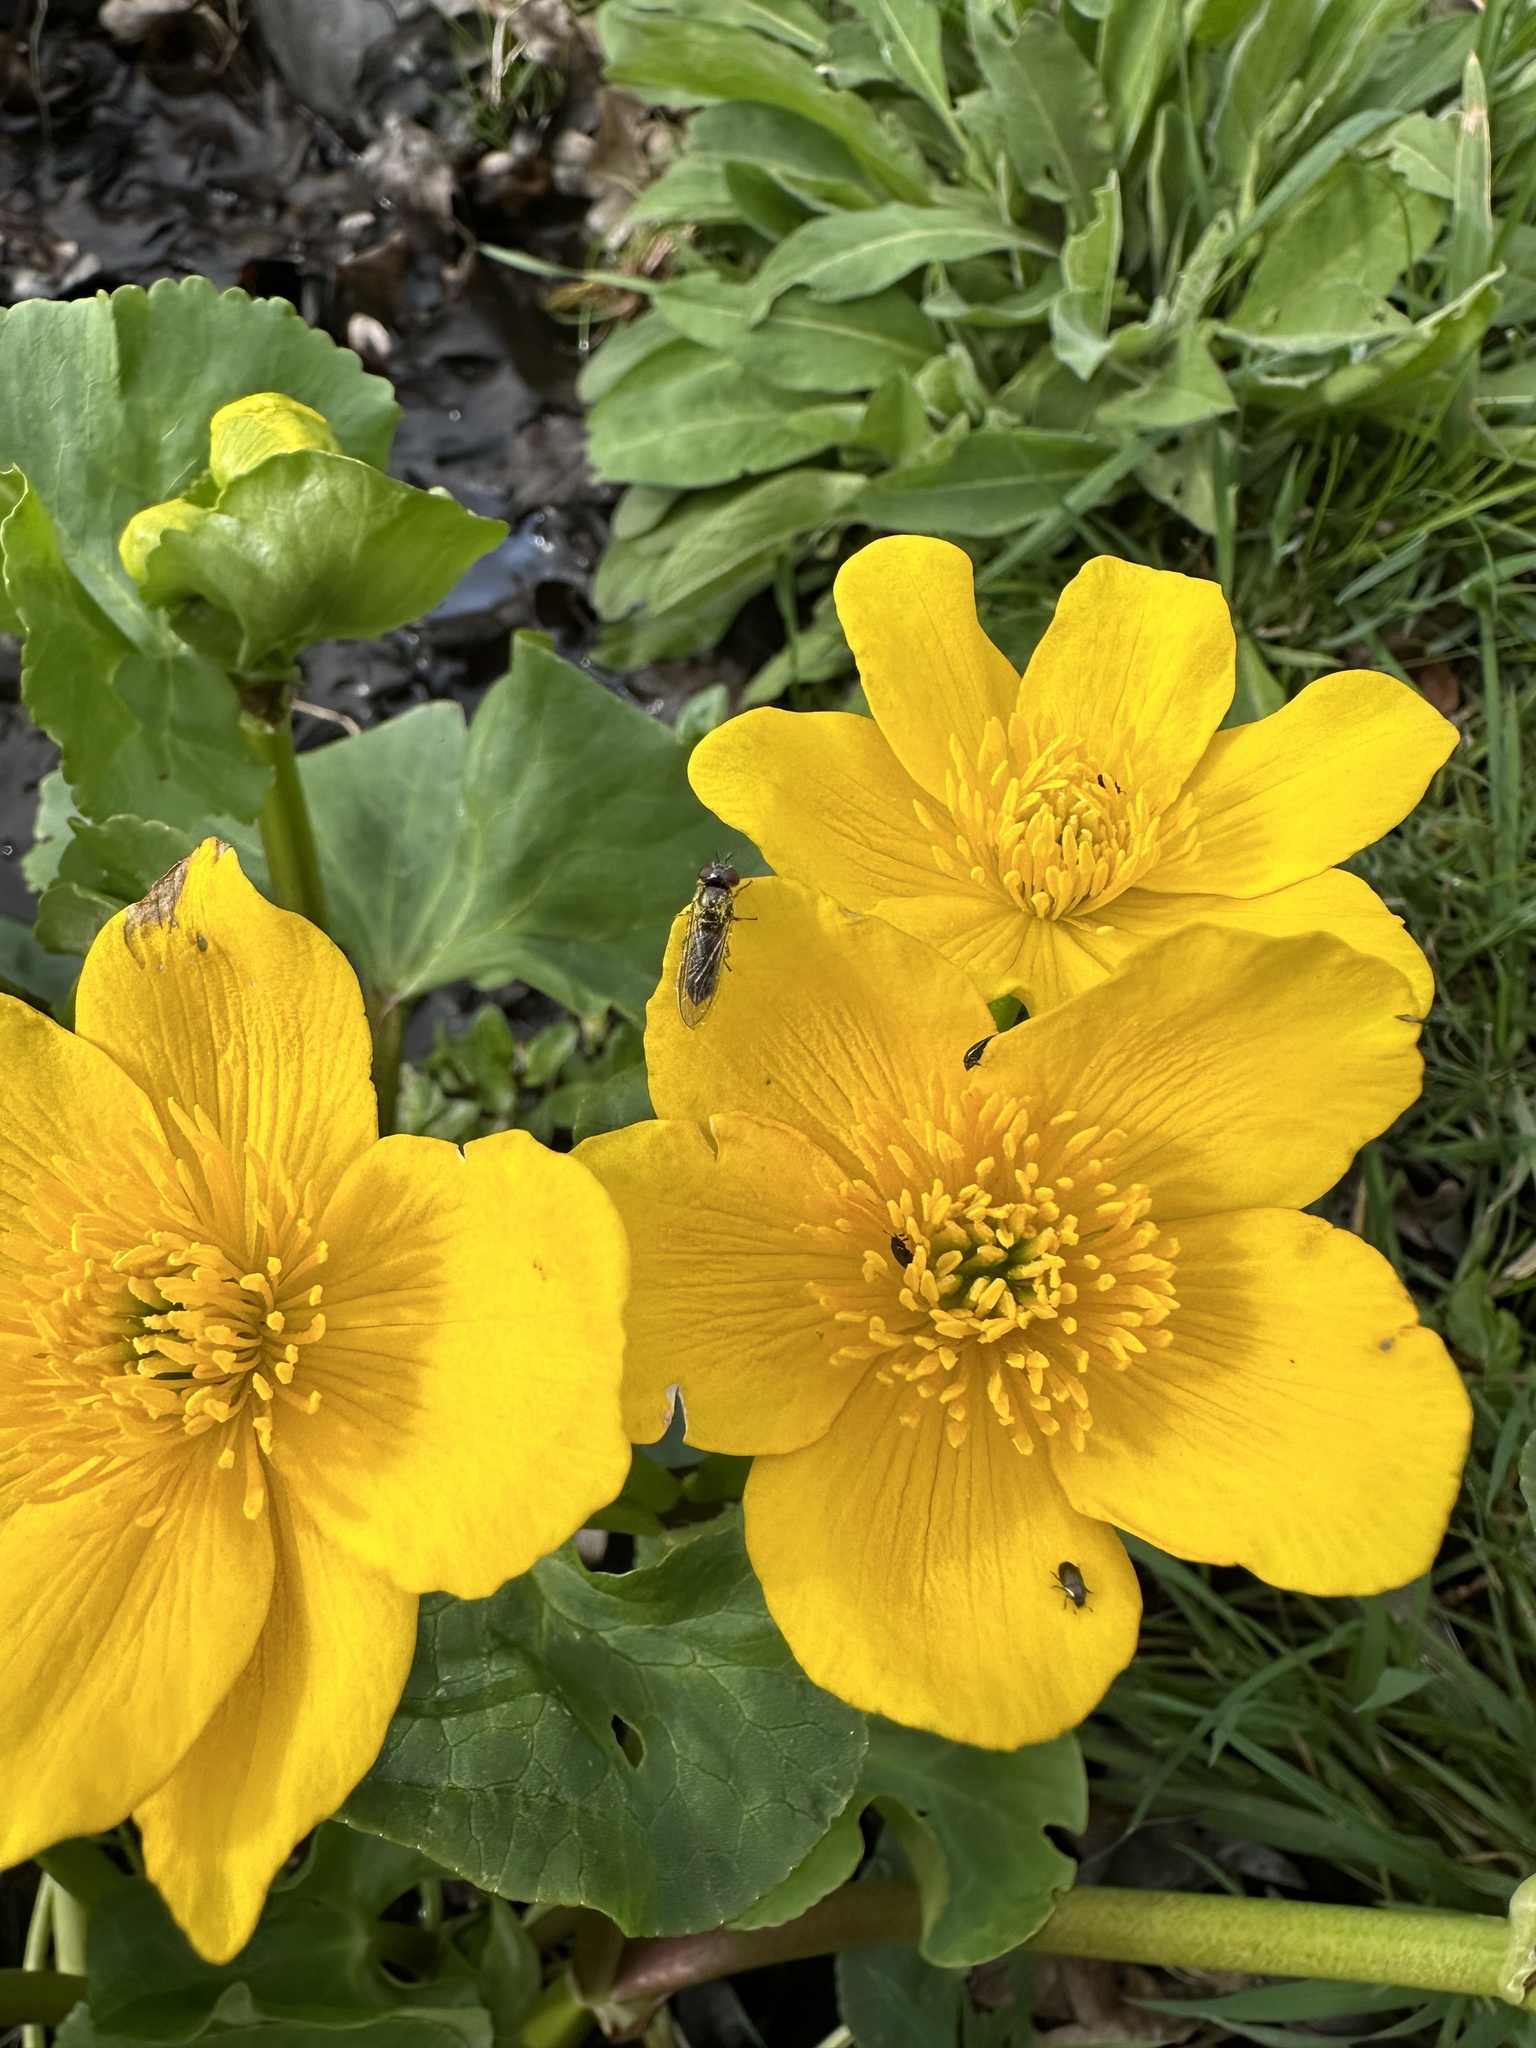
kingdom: Plantae
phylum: Tracheophyta
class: Magnoliopsida
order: Ranunculales
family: Ranunculaceae
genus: Caltha
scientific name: Caltha palustris
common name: Marsh marigold
